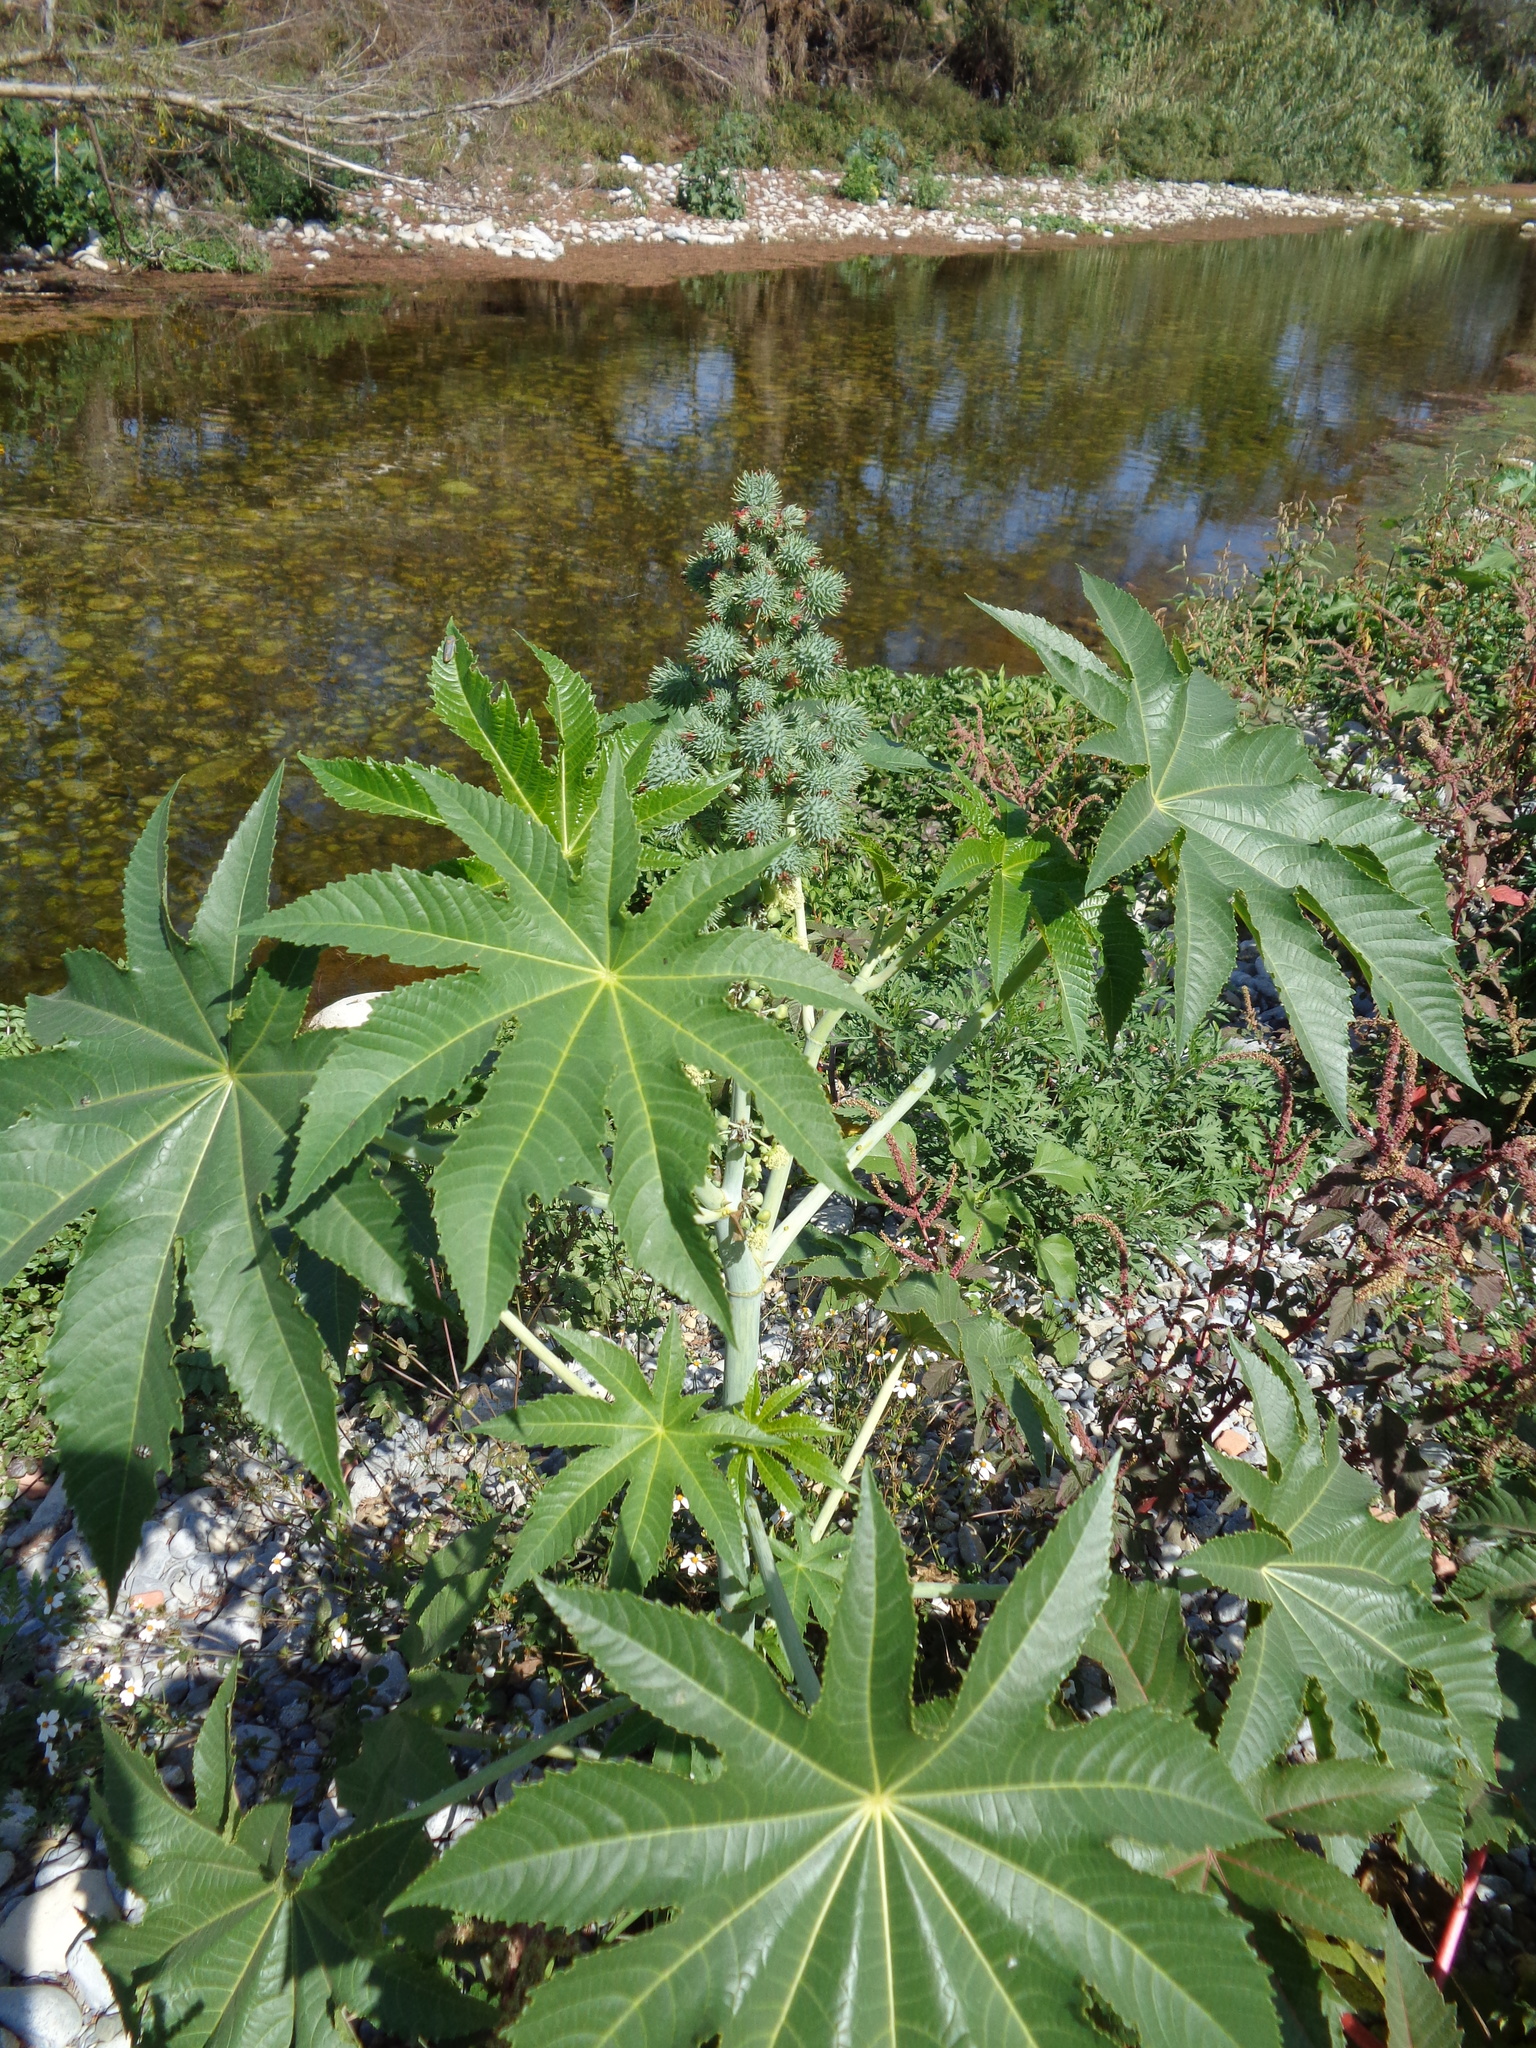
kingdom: Plantae
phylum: Tracheophyta
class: Magnoliopsida
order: Malpighiales
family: Euphorbiaceae
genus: Ricinus
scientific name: Ricinus communis
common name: Castor-oil-plant
